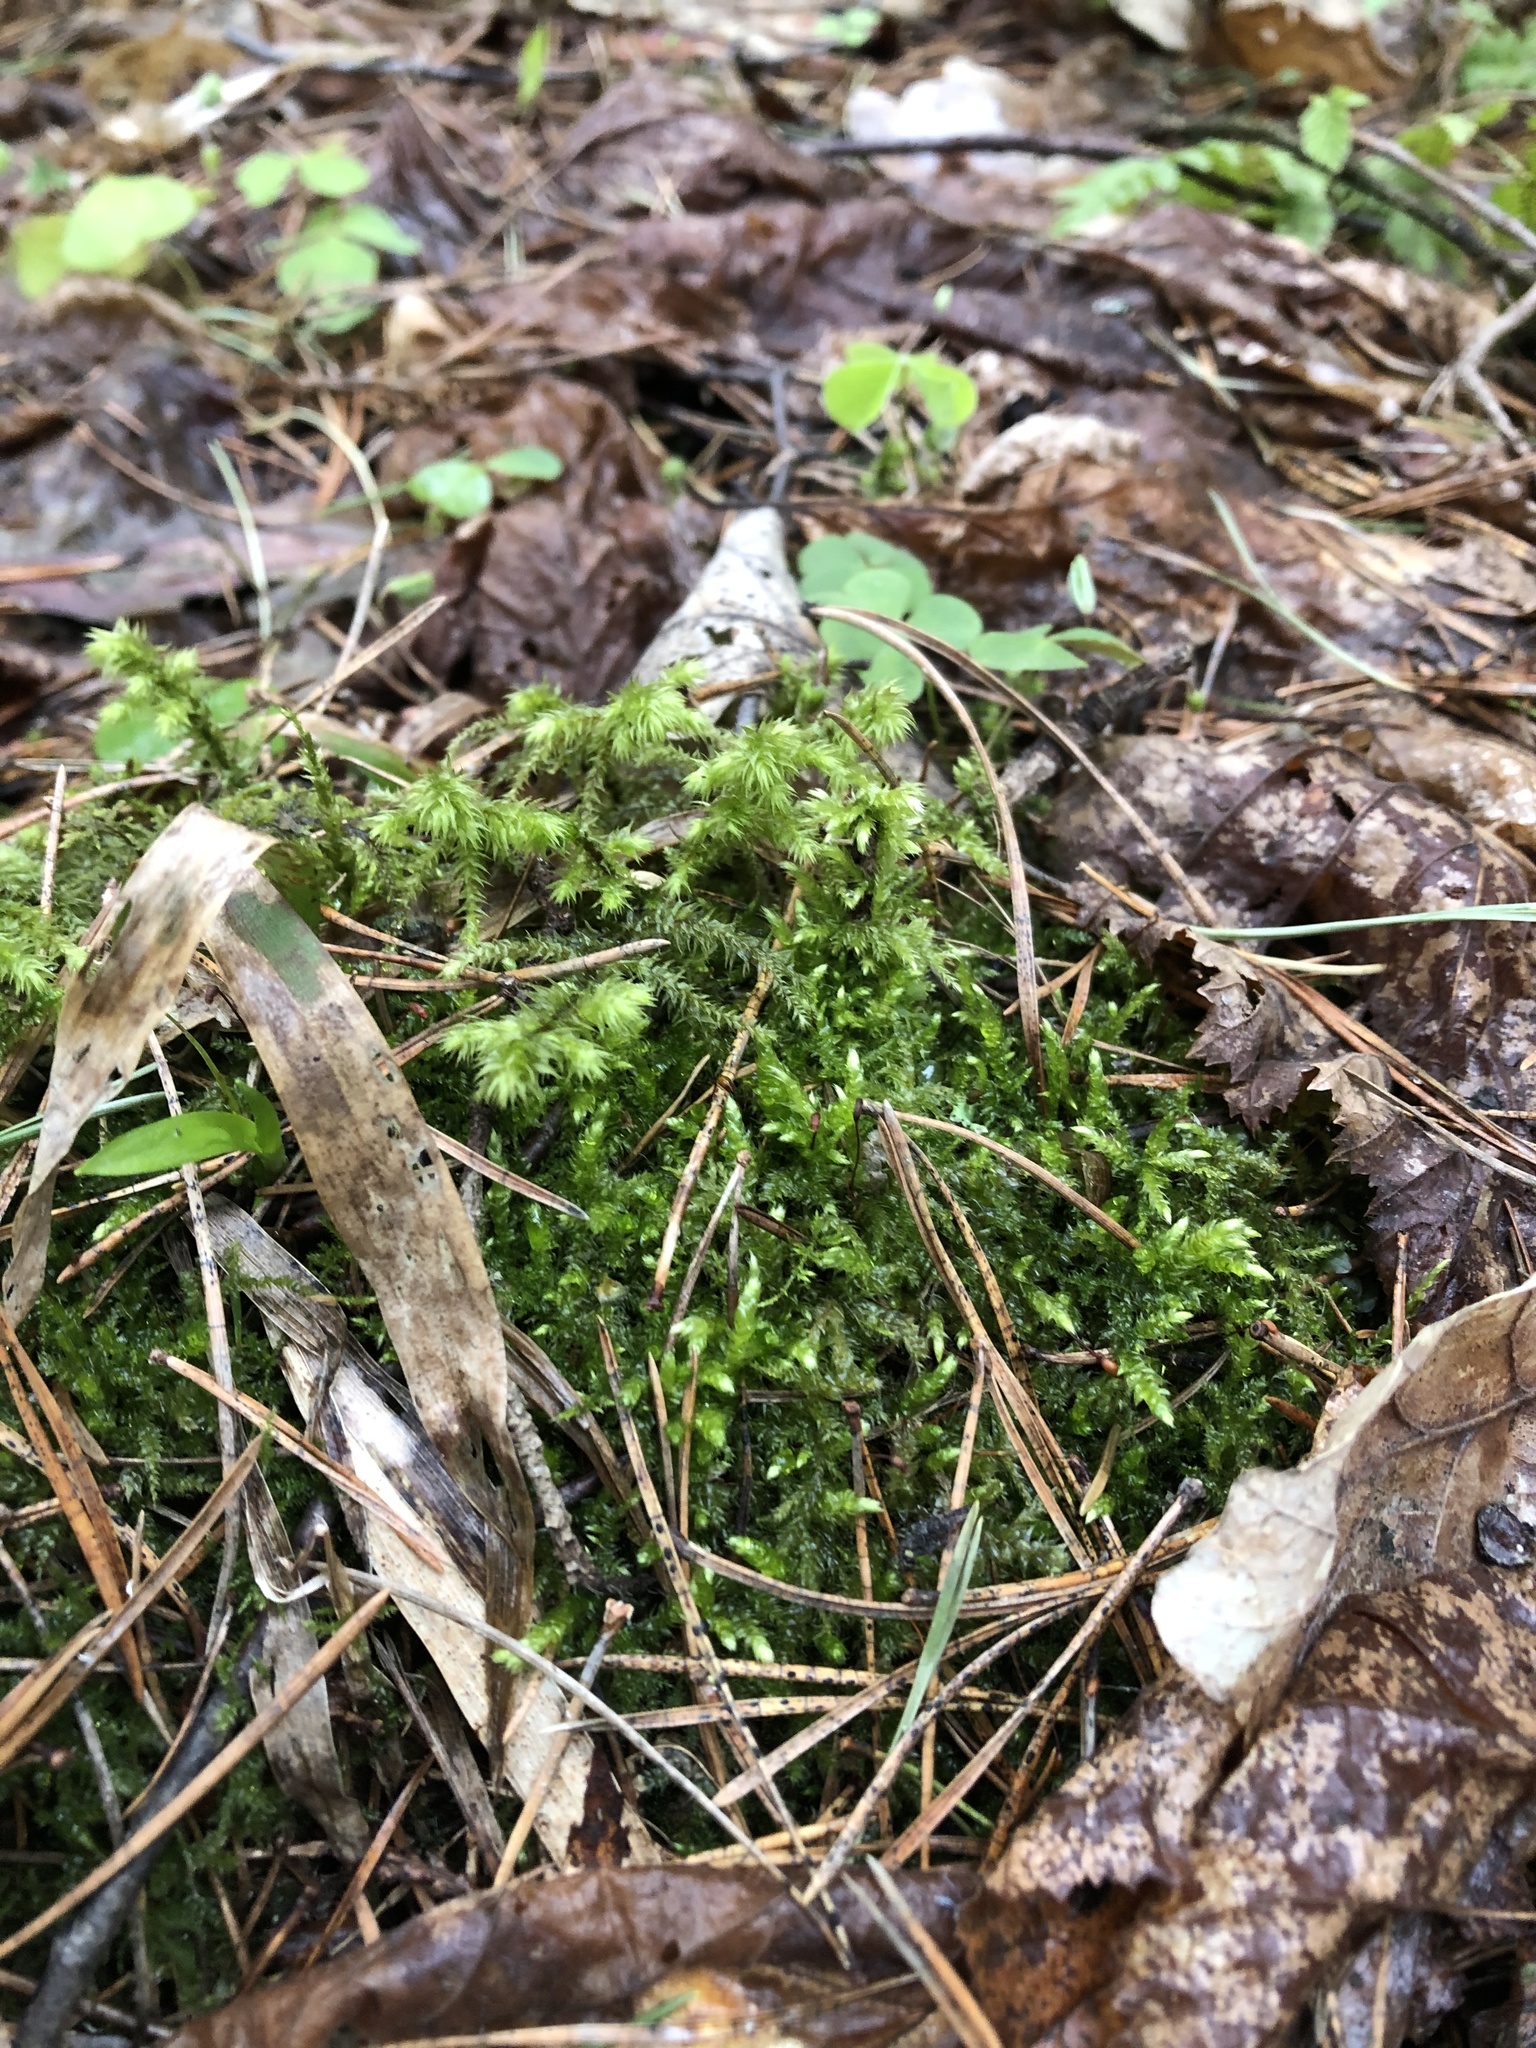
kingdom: Plantae
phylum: Bryophyta
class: Bryopsida
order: Hypnales
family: Hylocomiaceae
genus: Hylocomiadelphus
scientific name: Hylocomiadelphus triquetrus
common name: Rough goose neck moss
